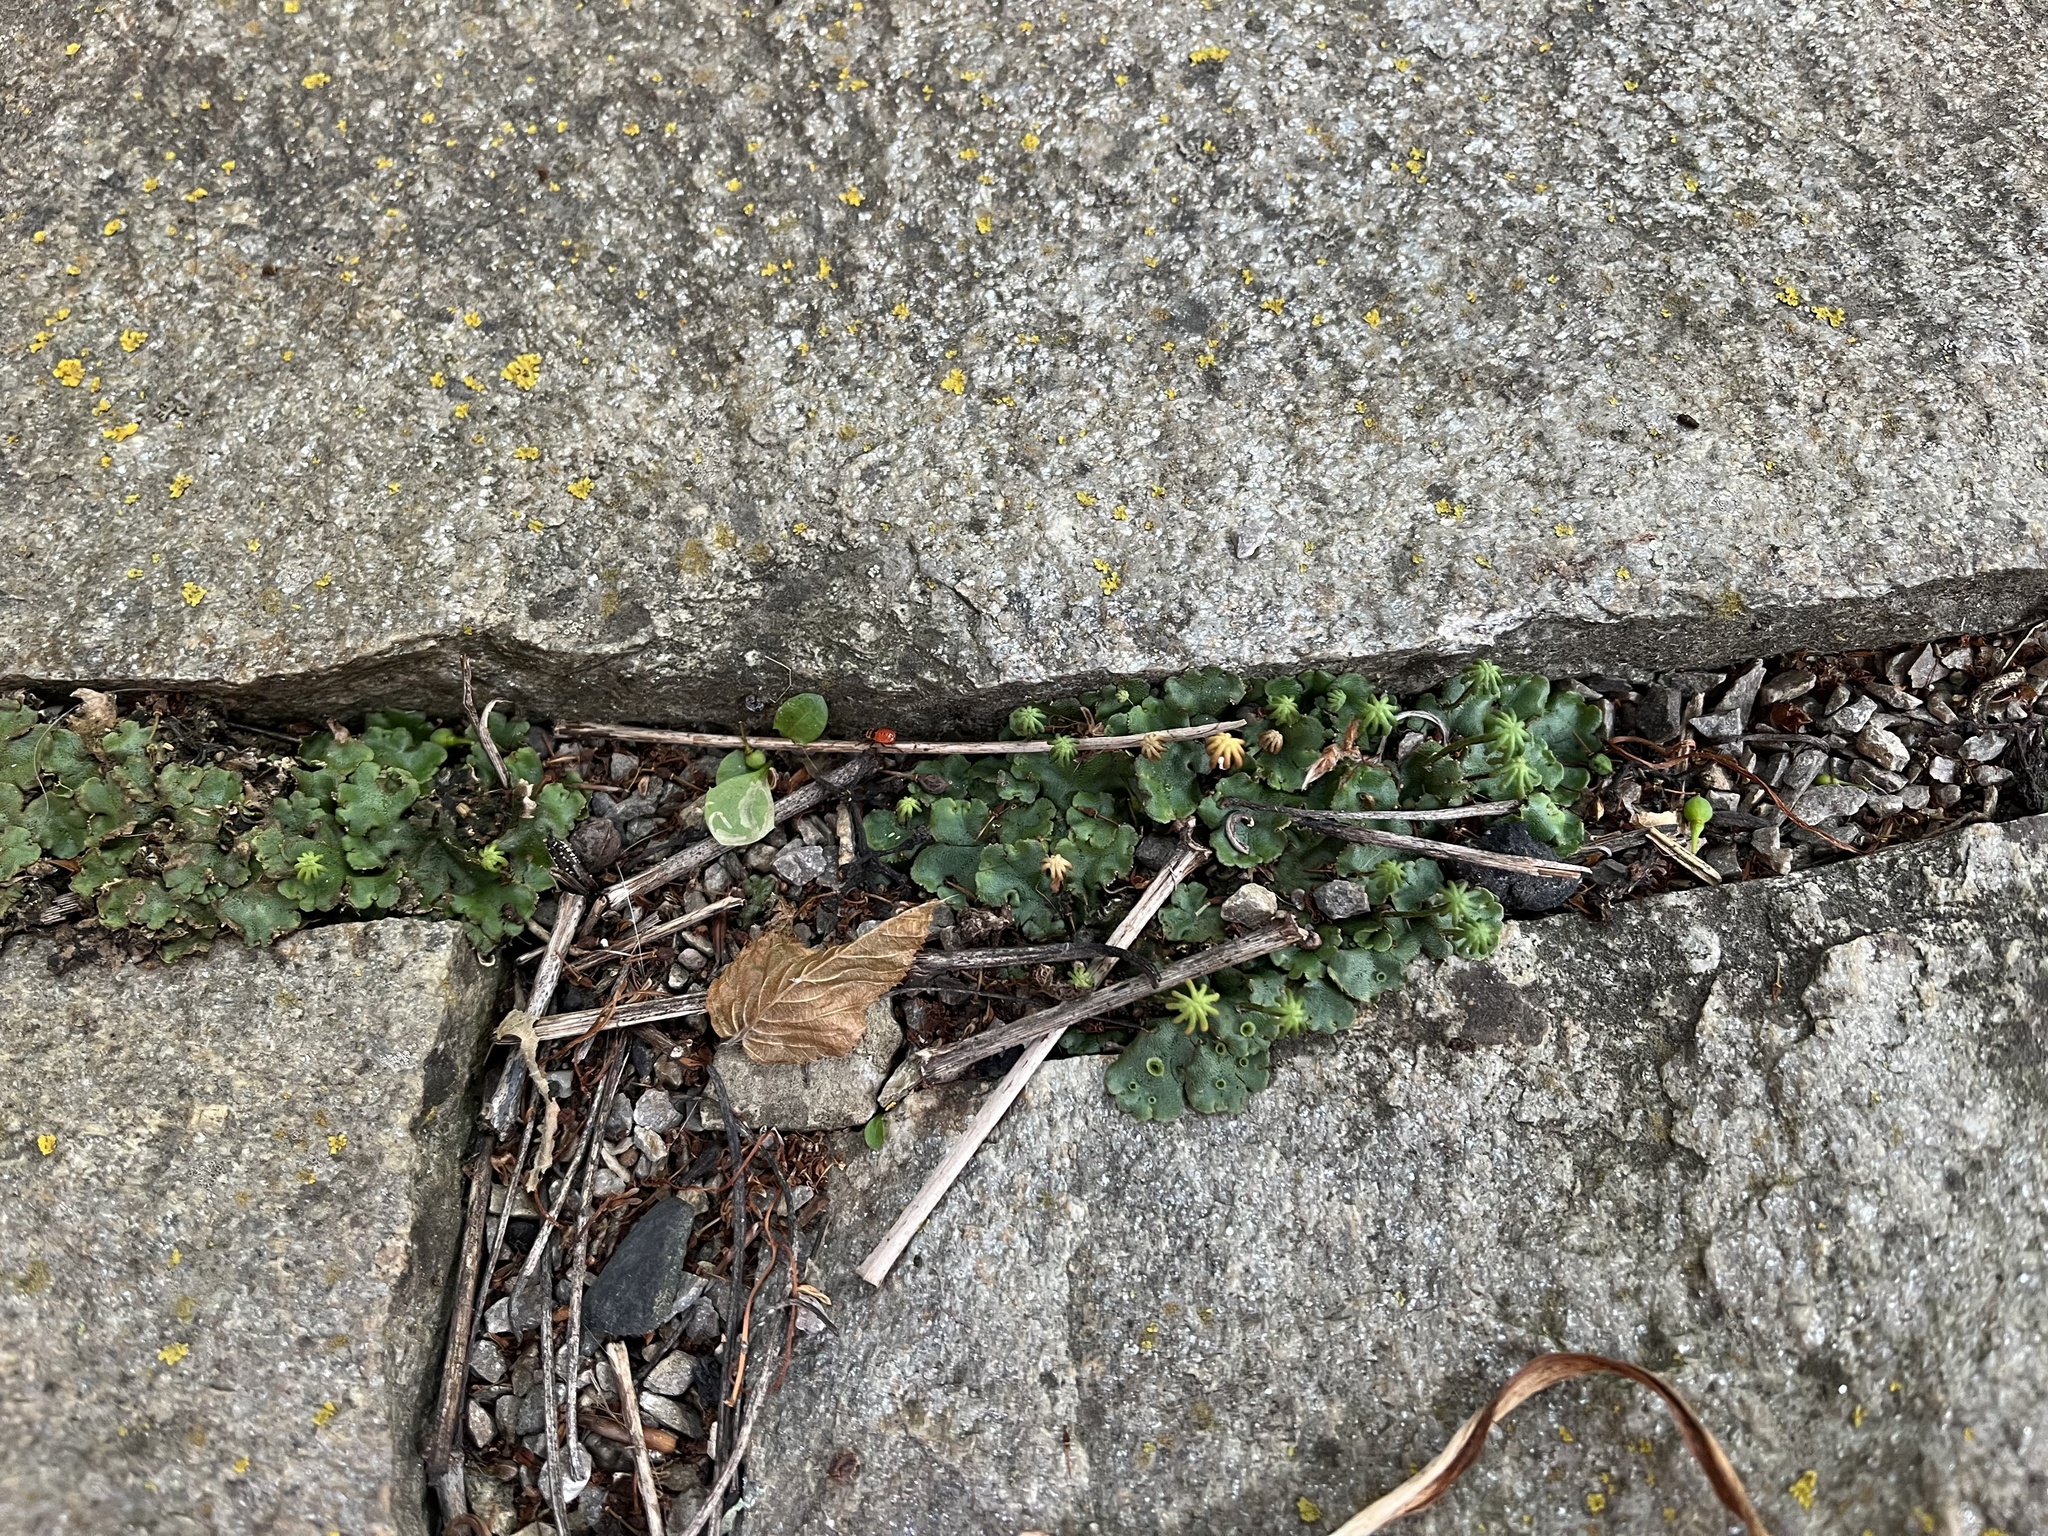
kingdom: Plantae
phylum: Marchantiophyta
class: Marchantiopsida
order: Marchantiales
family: Marchantiaceae
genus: Marchantia
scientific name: Marchantia polymorpha
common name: Common liverwort
